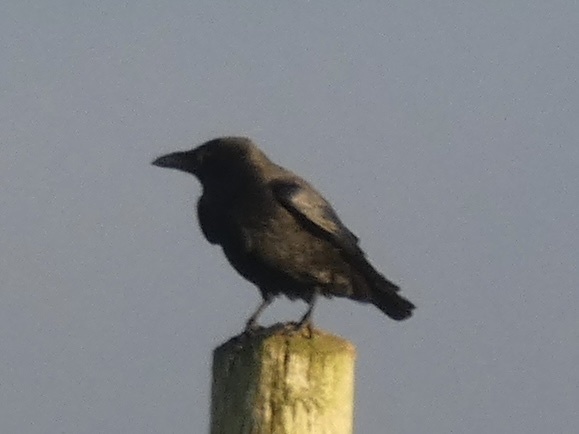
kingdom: Animalia
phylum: Chordata
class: Aves
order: Passeriformes
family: Corvidae
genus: Corvus
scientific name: Corvus corone
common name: Carrion crow
